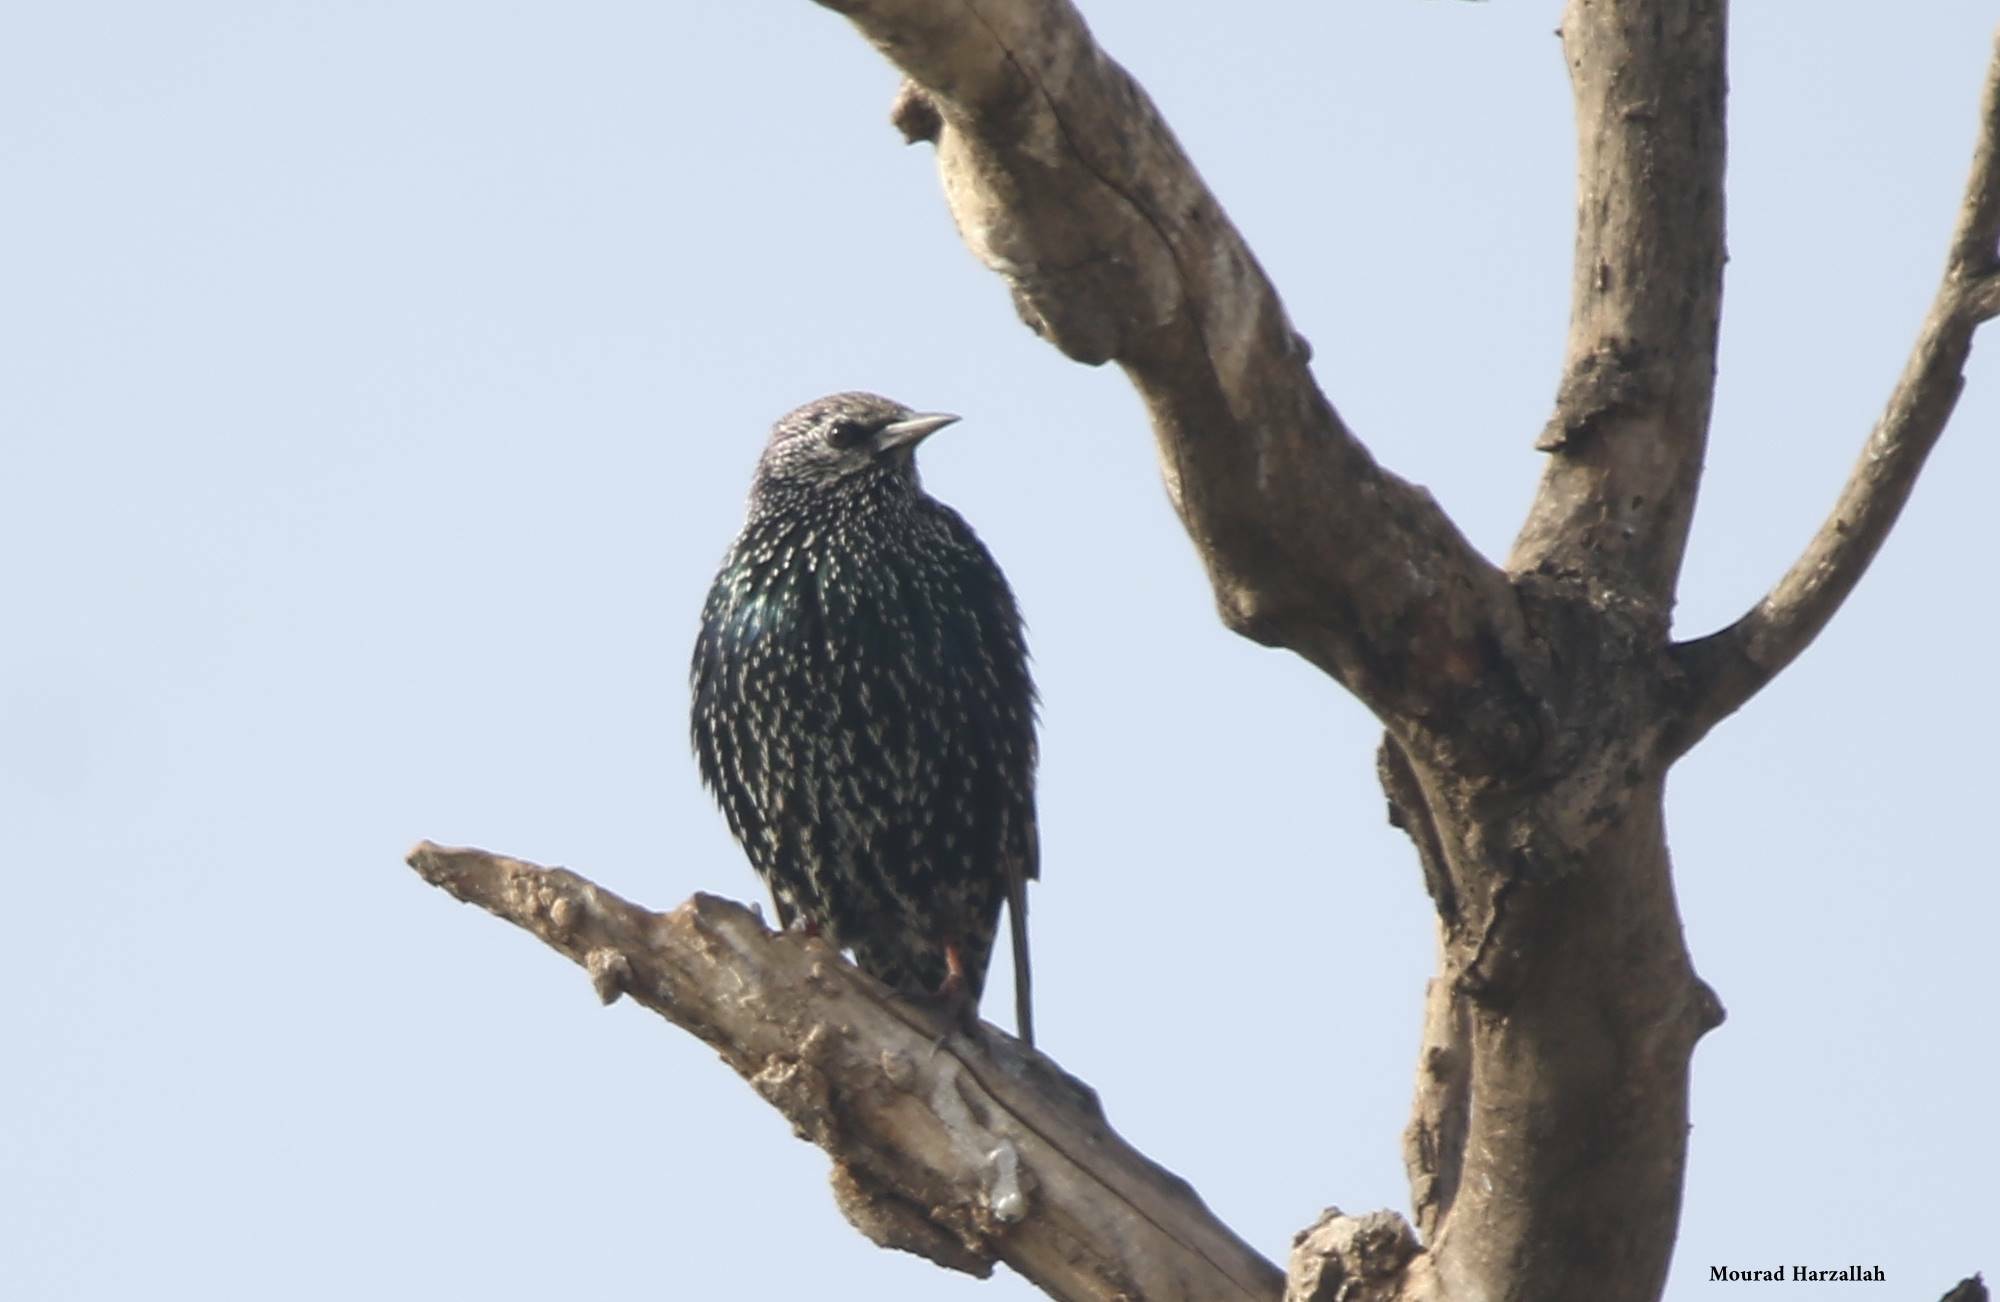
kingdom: Animalia
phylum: Chordata
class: Aves
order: Passeriformes
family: Sturnidae
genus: Sturnus
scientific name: Sturnus vulgaris
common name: Common starling
